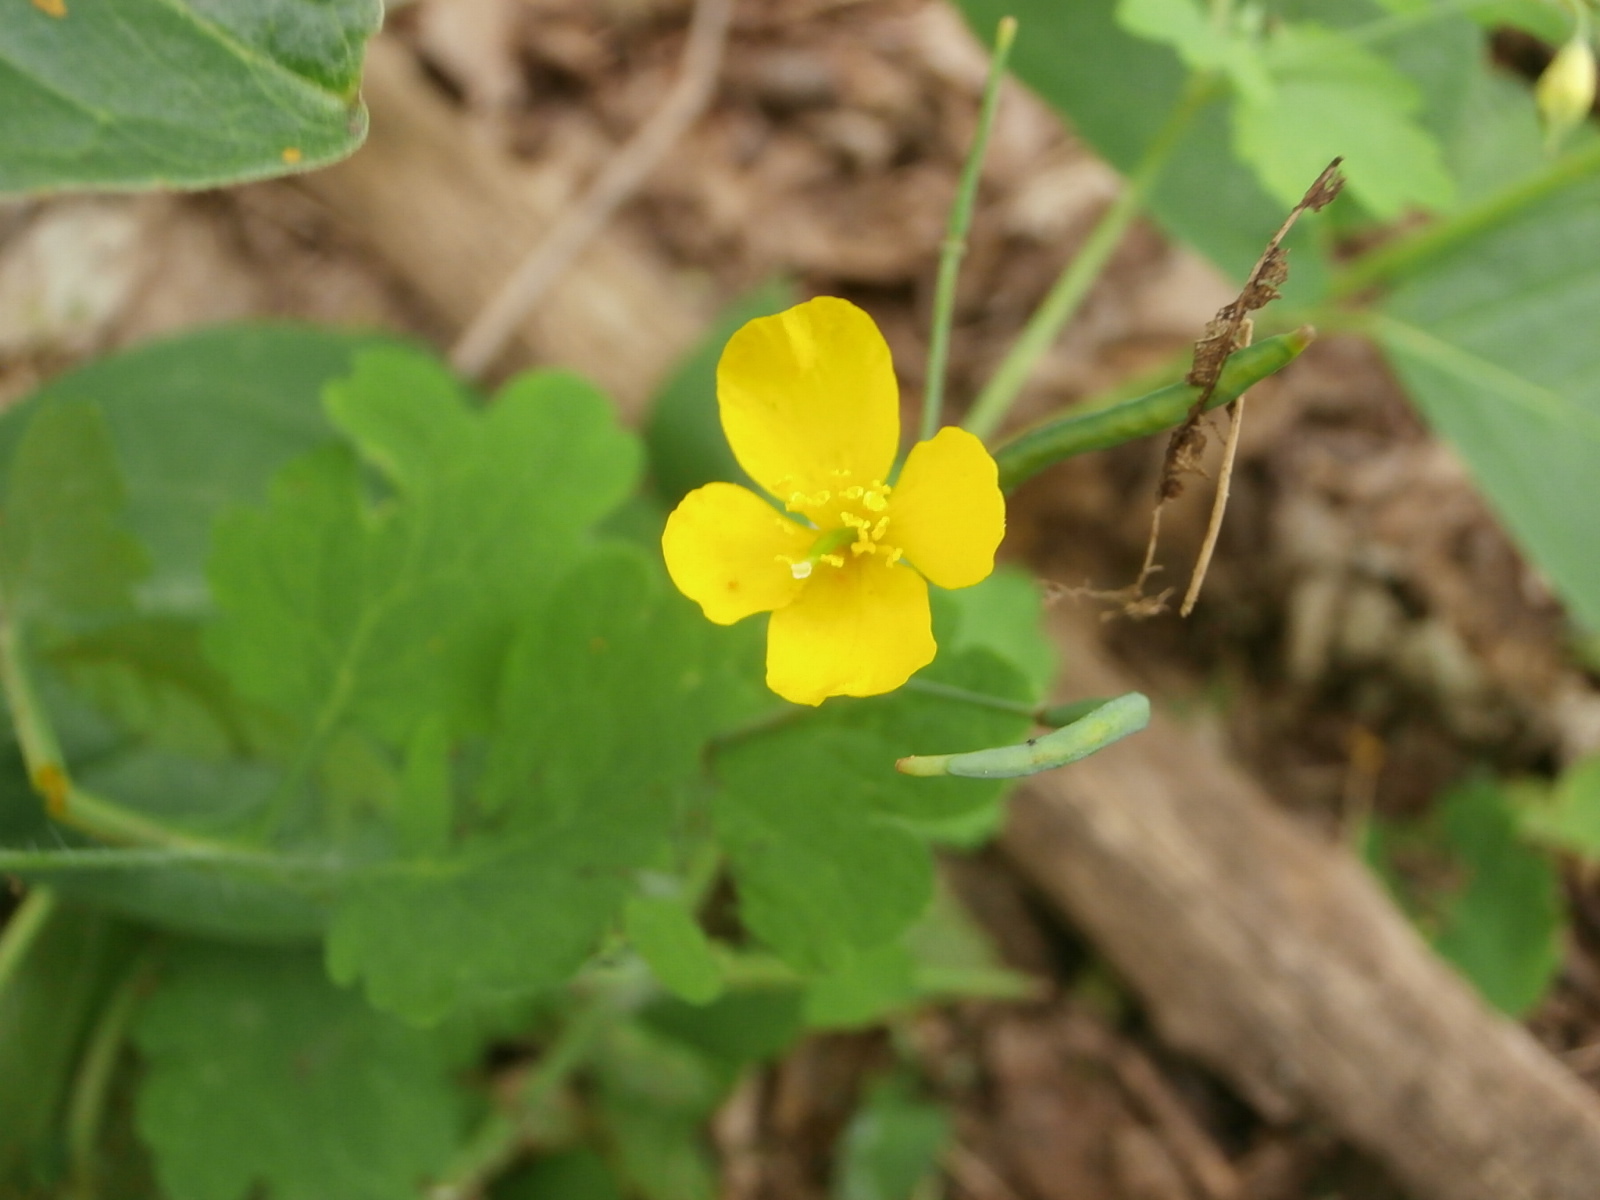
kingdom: Plantae
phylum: Tracheophyta
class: Magnoliopsida
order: Ranunculales
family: Papaveraceae
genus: Chelidonium
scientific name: Chelidonium majus
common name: Greater celandine
